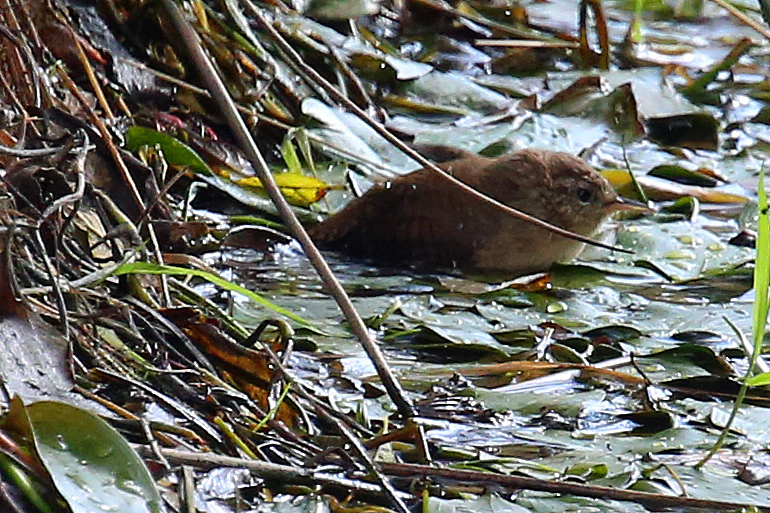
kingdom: Animalia
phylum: Chordata
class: Aves
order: Passeriformes
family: Troglodytidae
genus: Troglodytes
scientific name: Troglodytes troglodytes
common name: Eurasian wren
